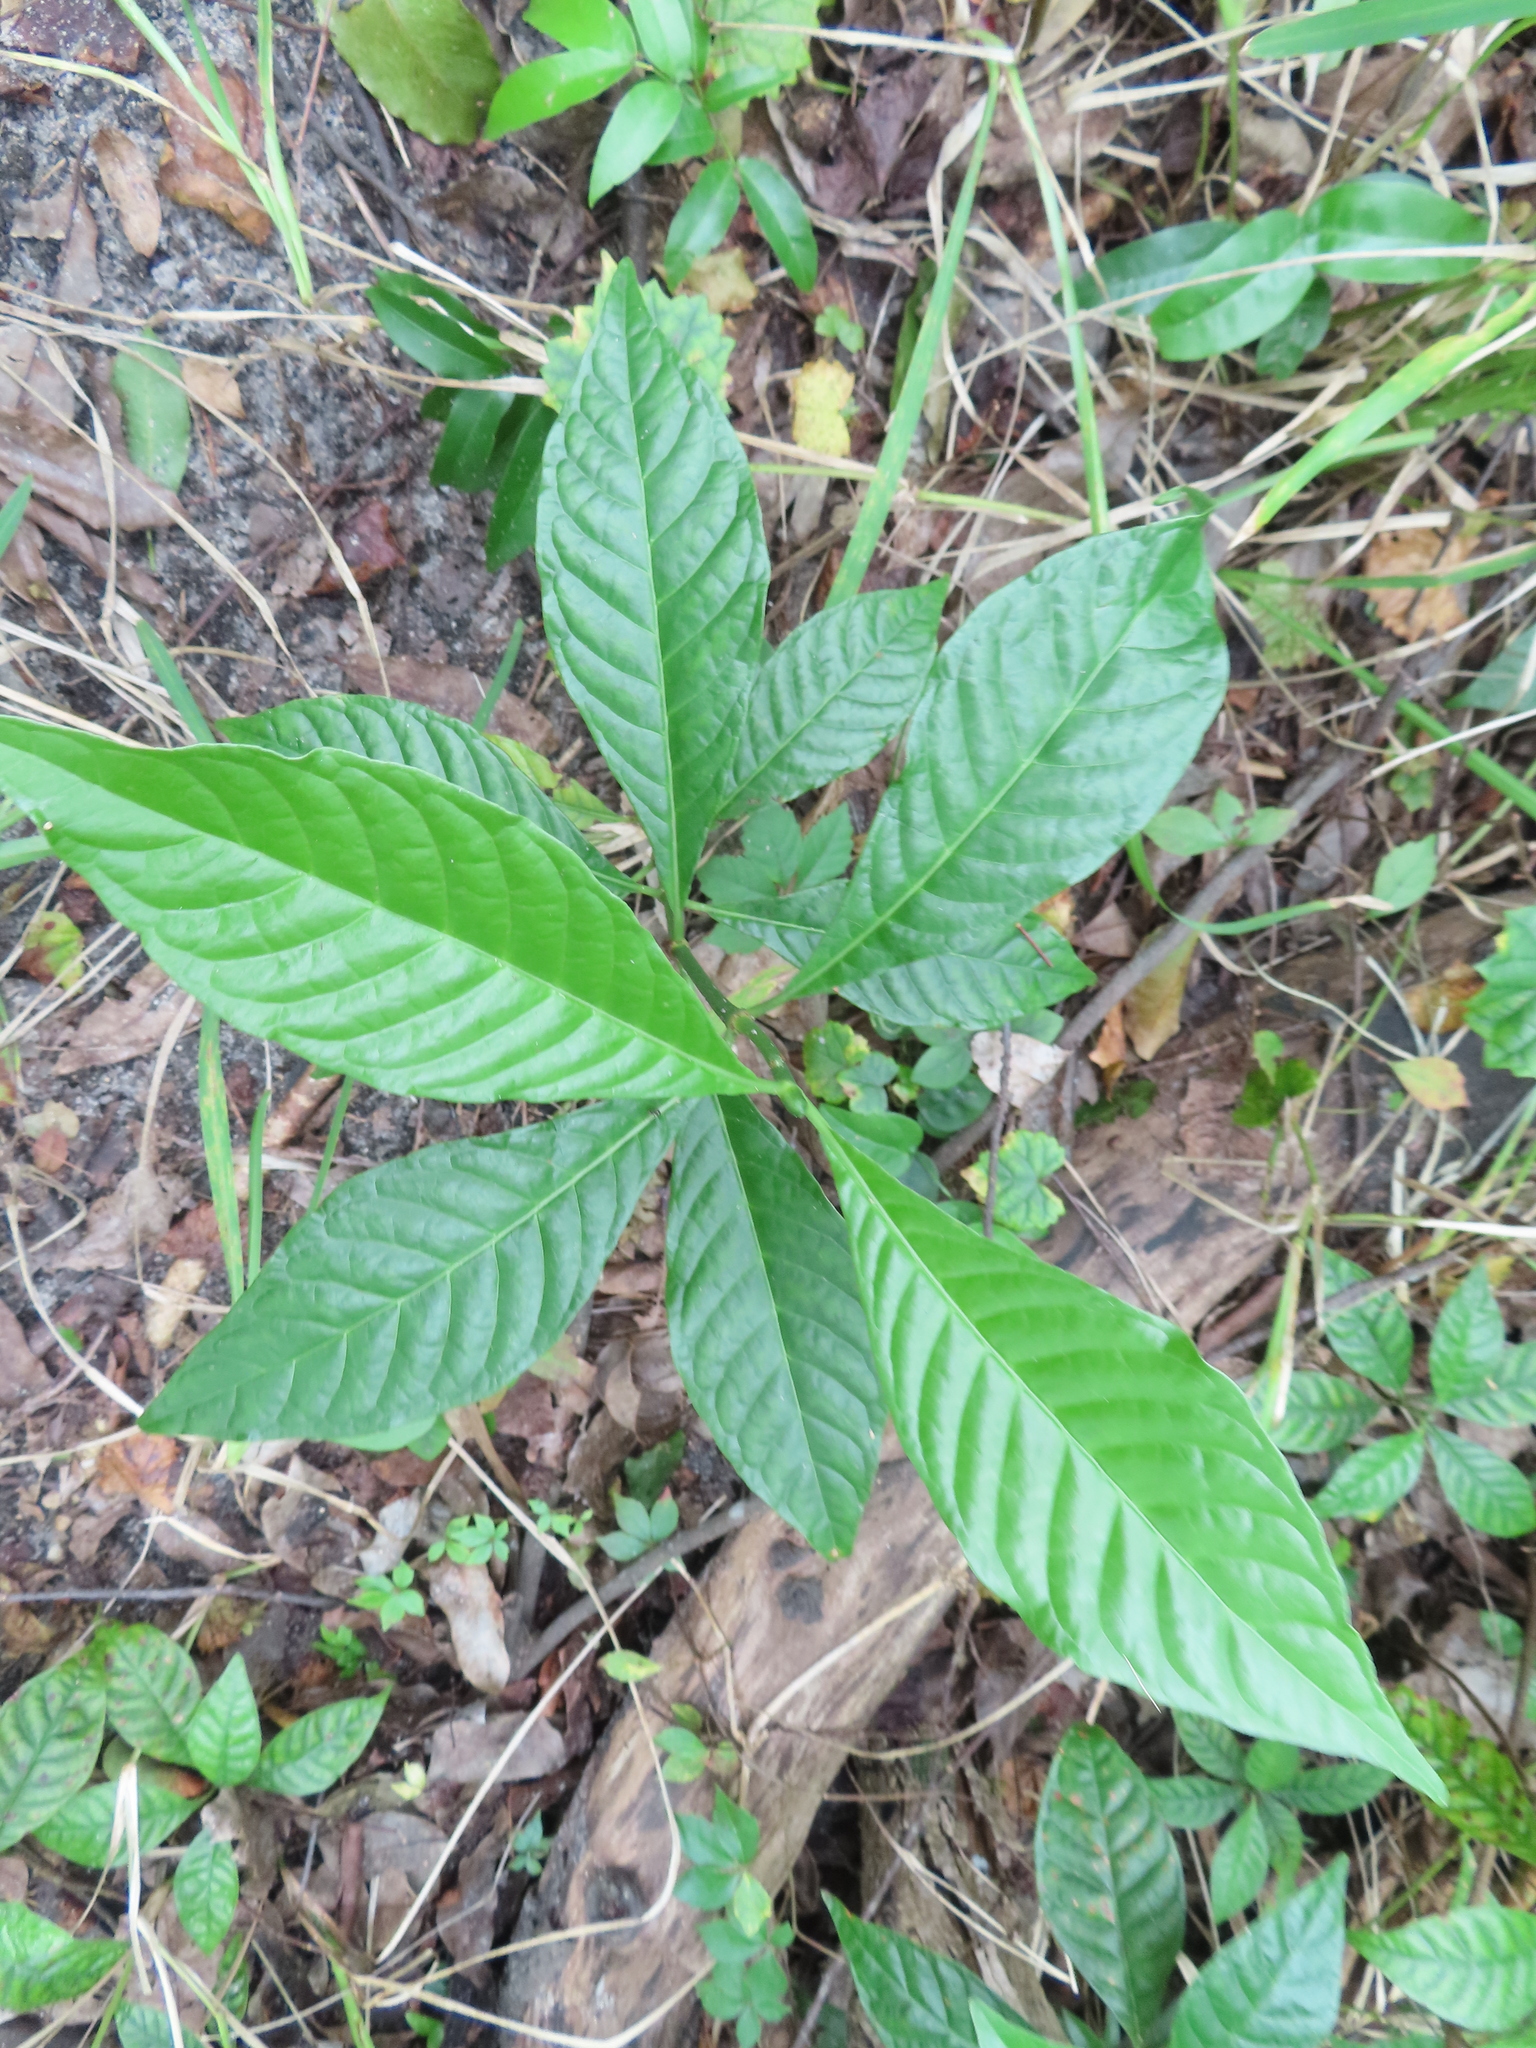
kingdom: Plantae
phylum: Tracheophyta
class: Magnoliopsida
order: Gentianales
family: Rubiaceae
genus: Psychotria
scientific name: Psychotria nervosa
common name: Bastard cankerberry
